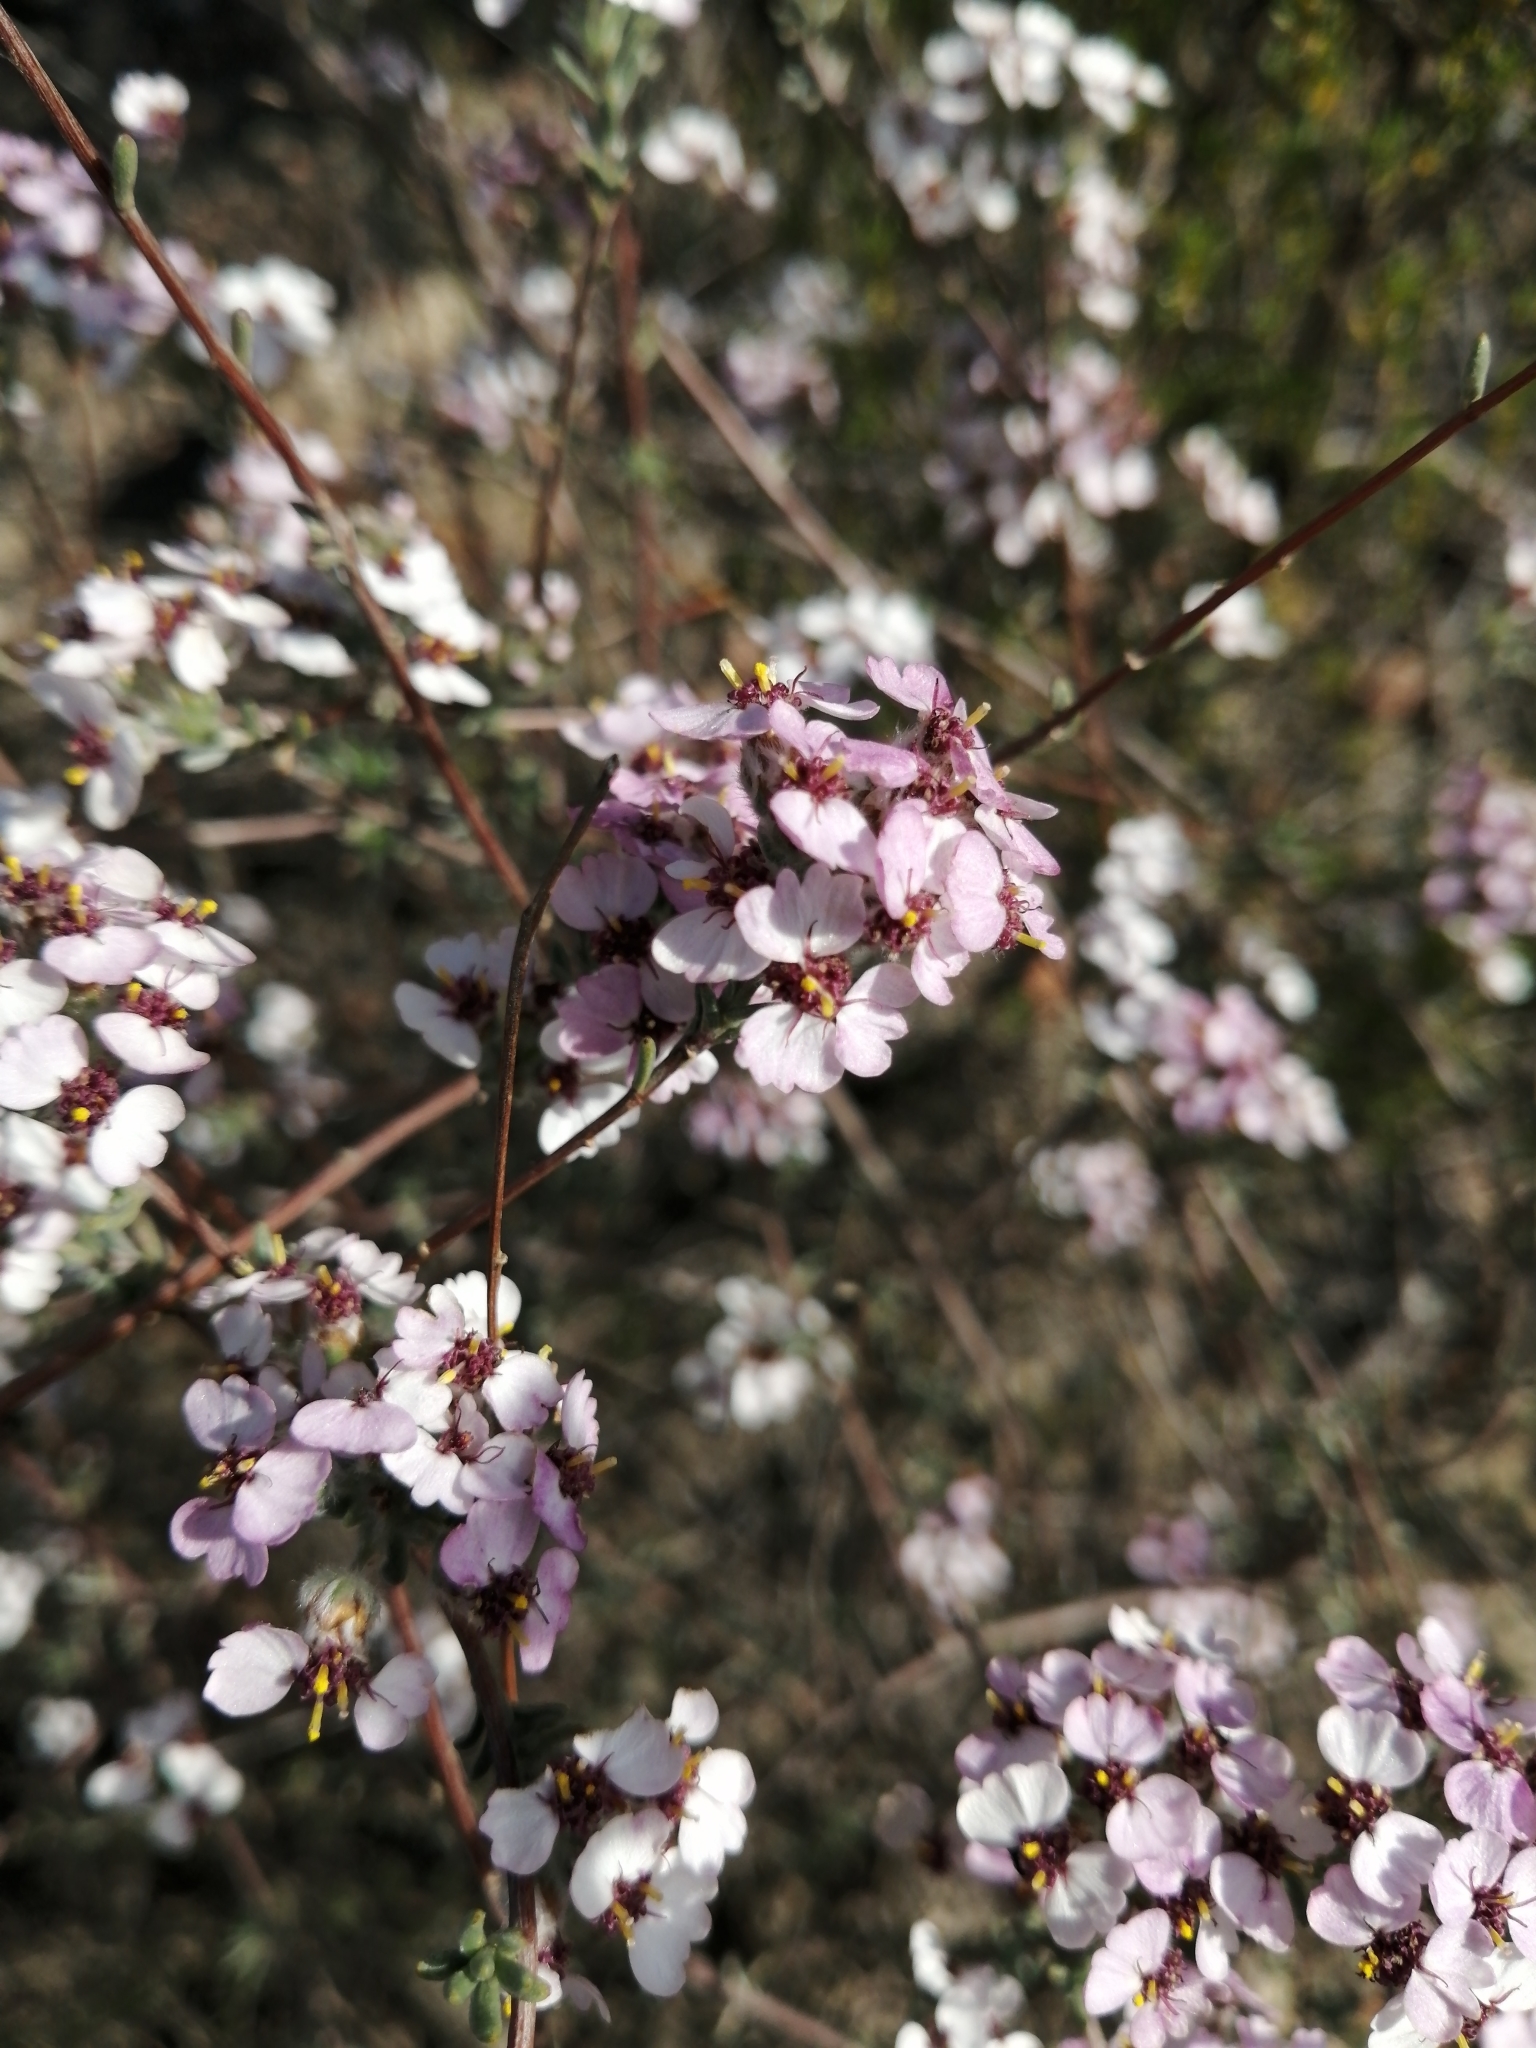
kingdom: Plantae
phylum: Tracheophyta
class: Magnoliopsida
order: Asterales
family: Asteraceae
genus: Eriocephalus
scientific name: Eriocephalus africanus
